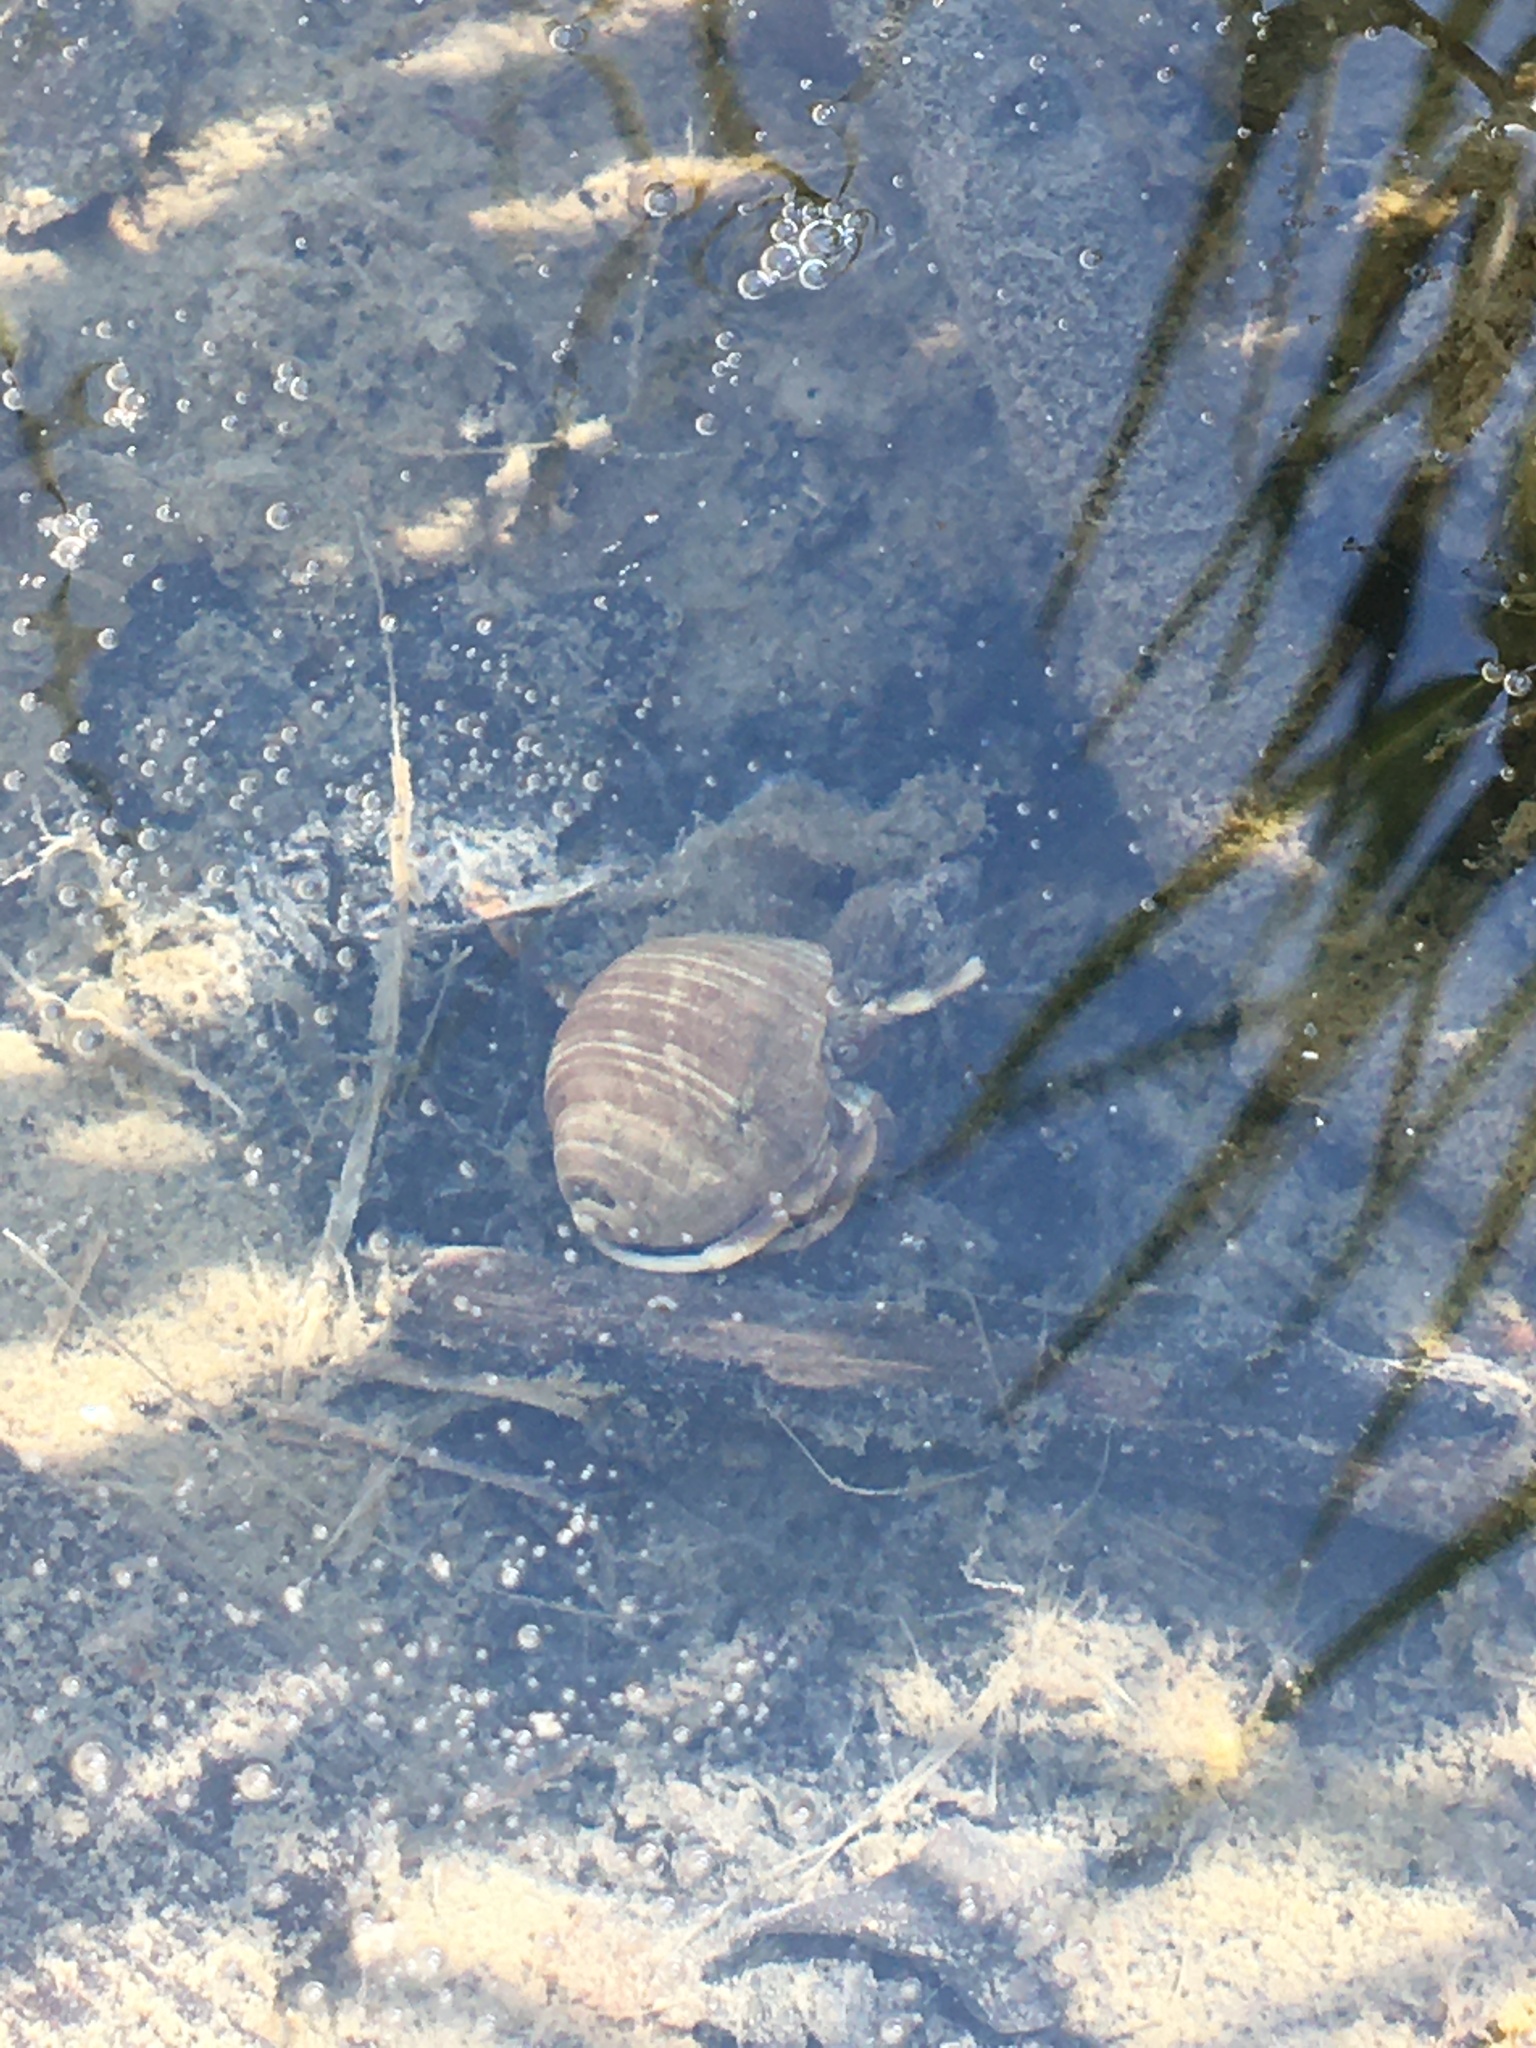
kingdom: Animalia
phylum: Arthropoda
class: Malacostraca
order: Decapoda
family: Paguridae
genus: Pagurus
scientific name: Pagurus longicarpus
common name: Long-armed hermit crab
